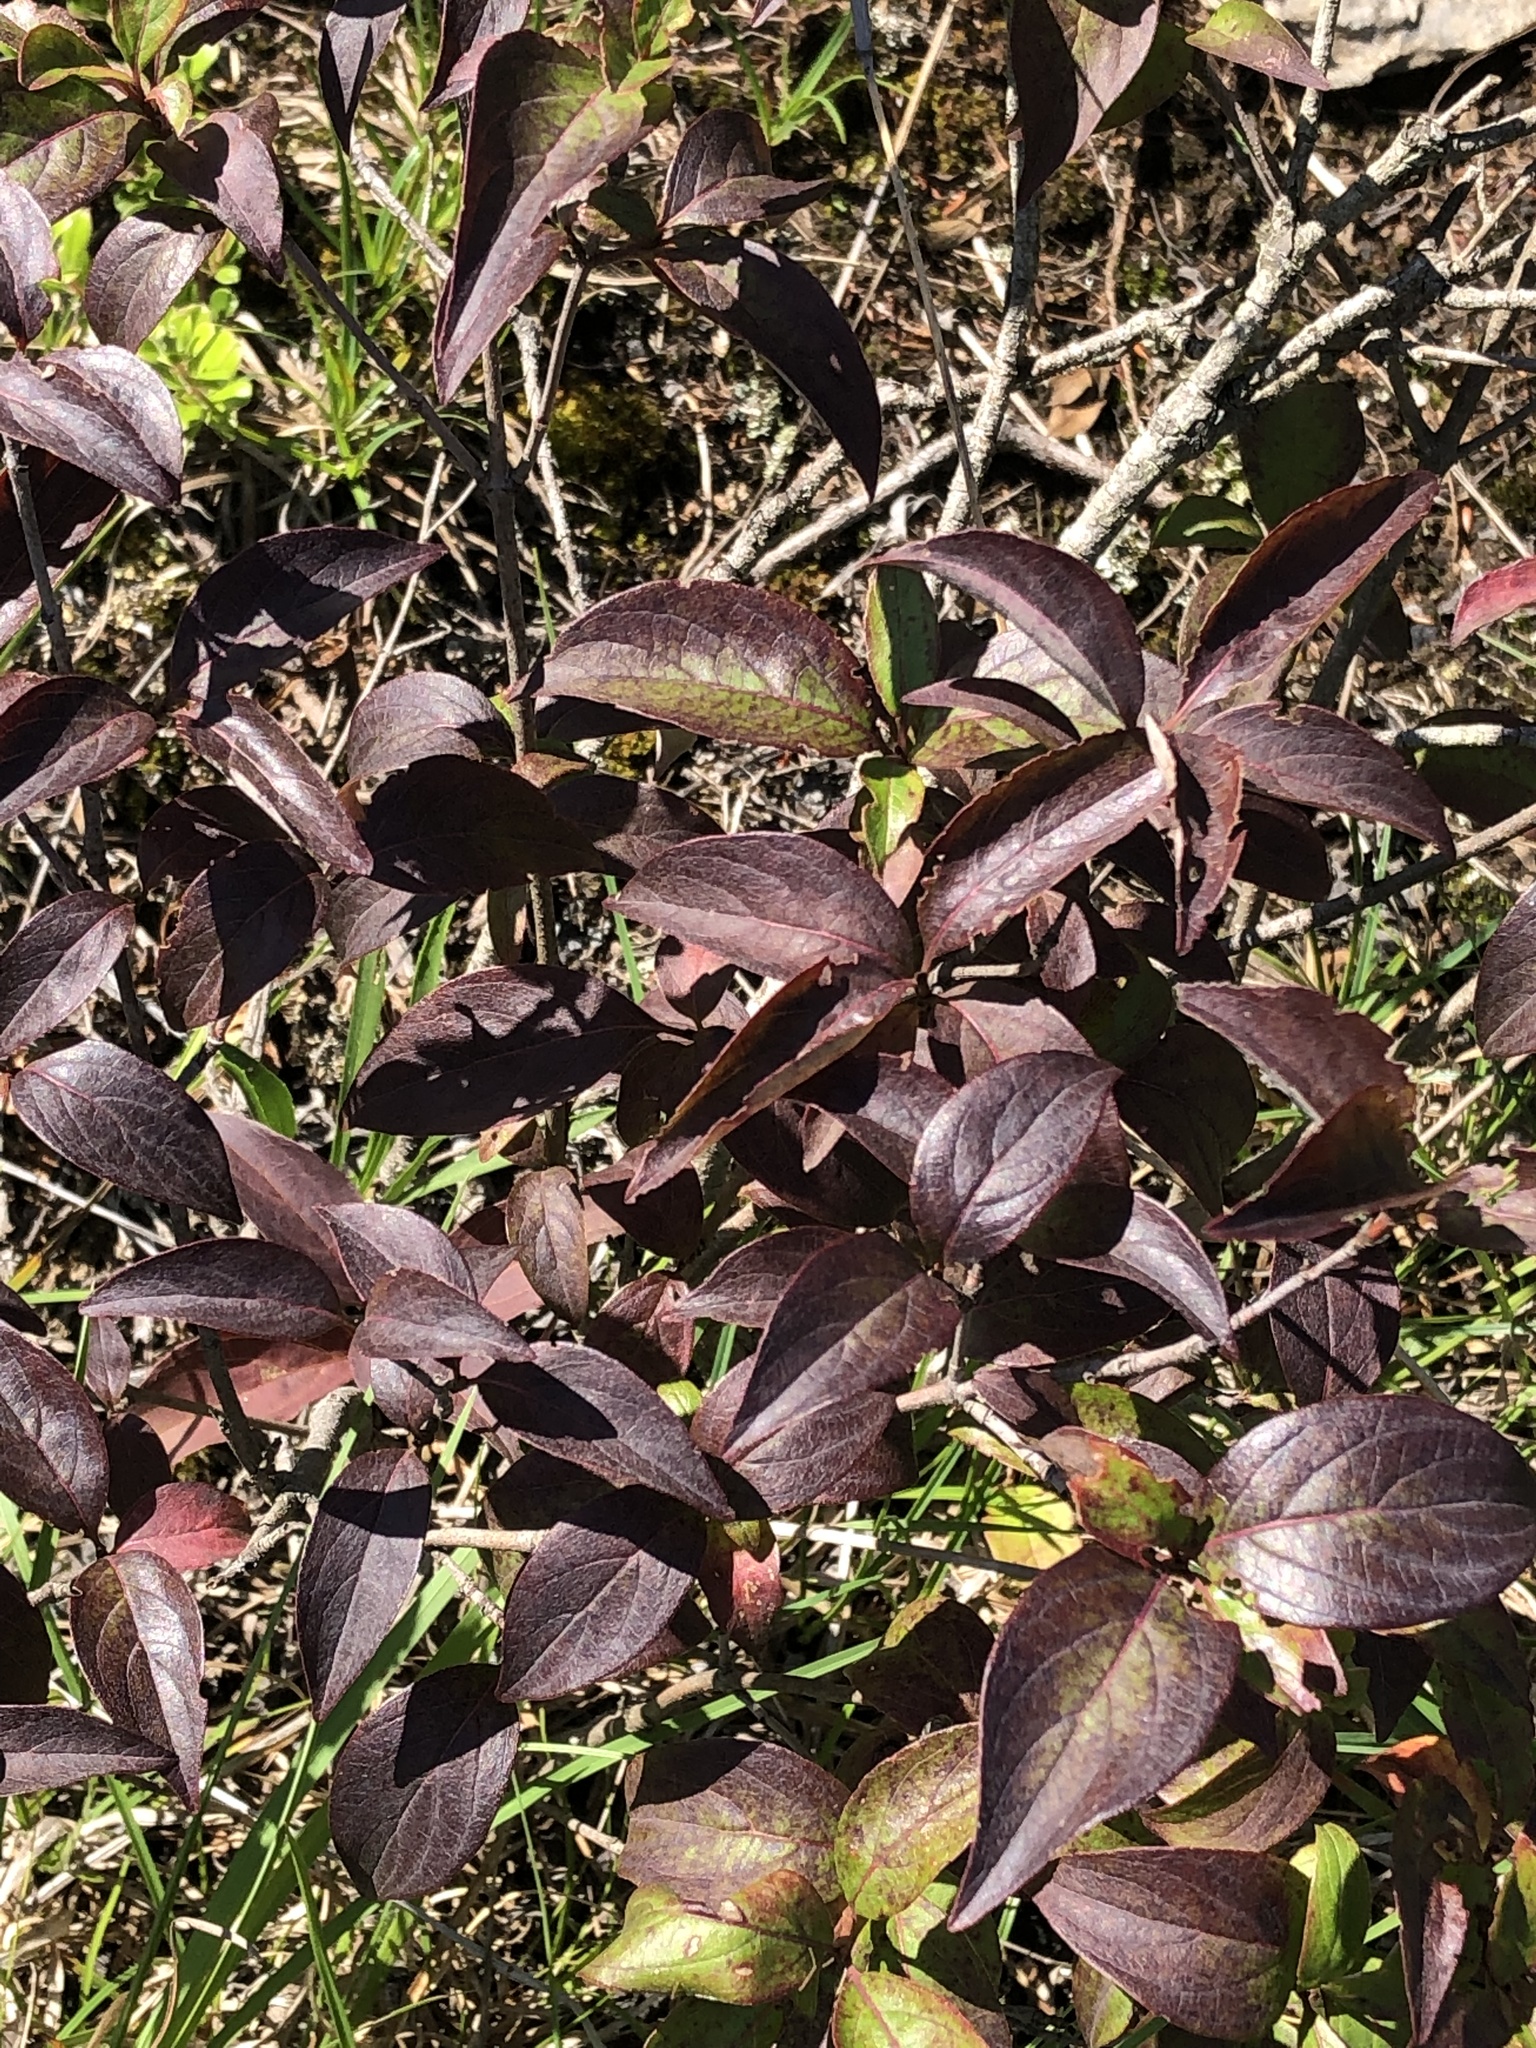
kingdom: Plantae
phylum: Tracheophyta
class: Magnoliopsida
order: Cornales
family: Cornaceae
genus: Cornus
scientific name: Cornus racemosa
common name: Panicled dogwood
